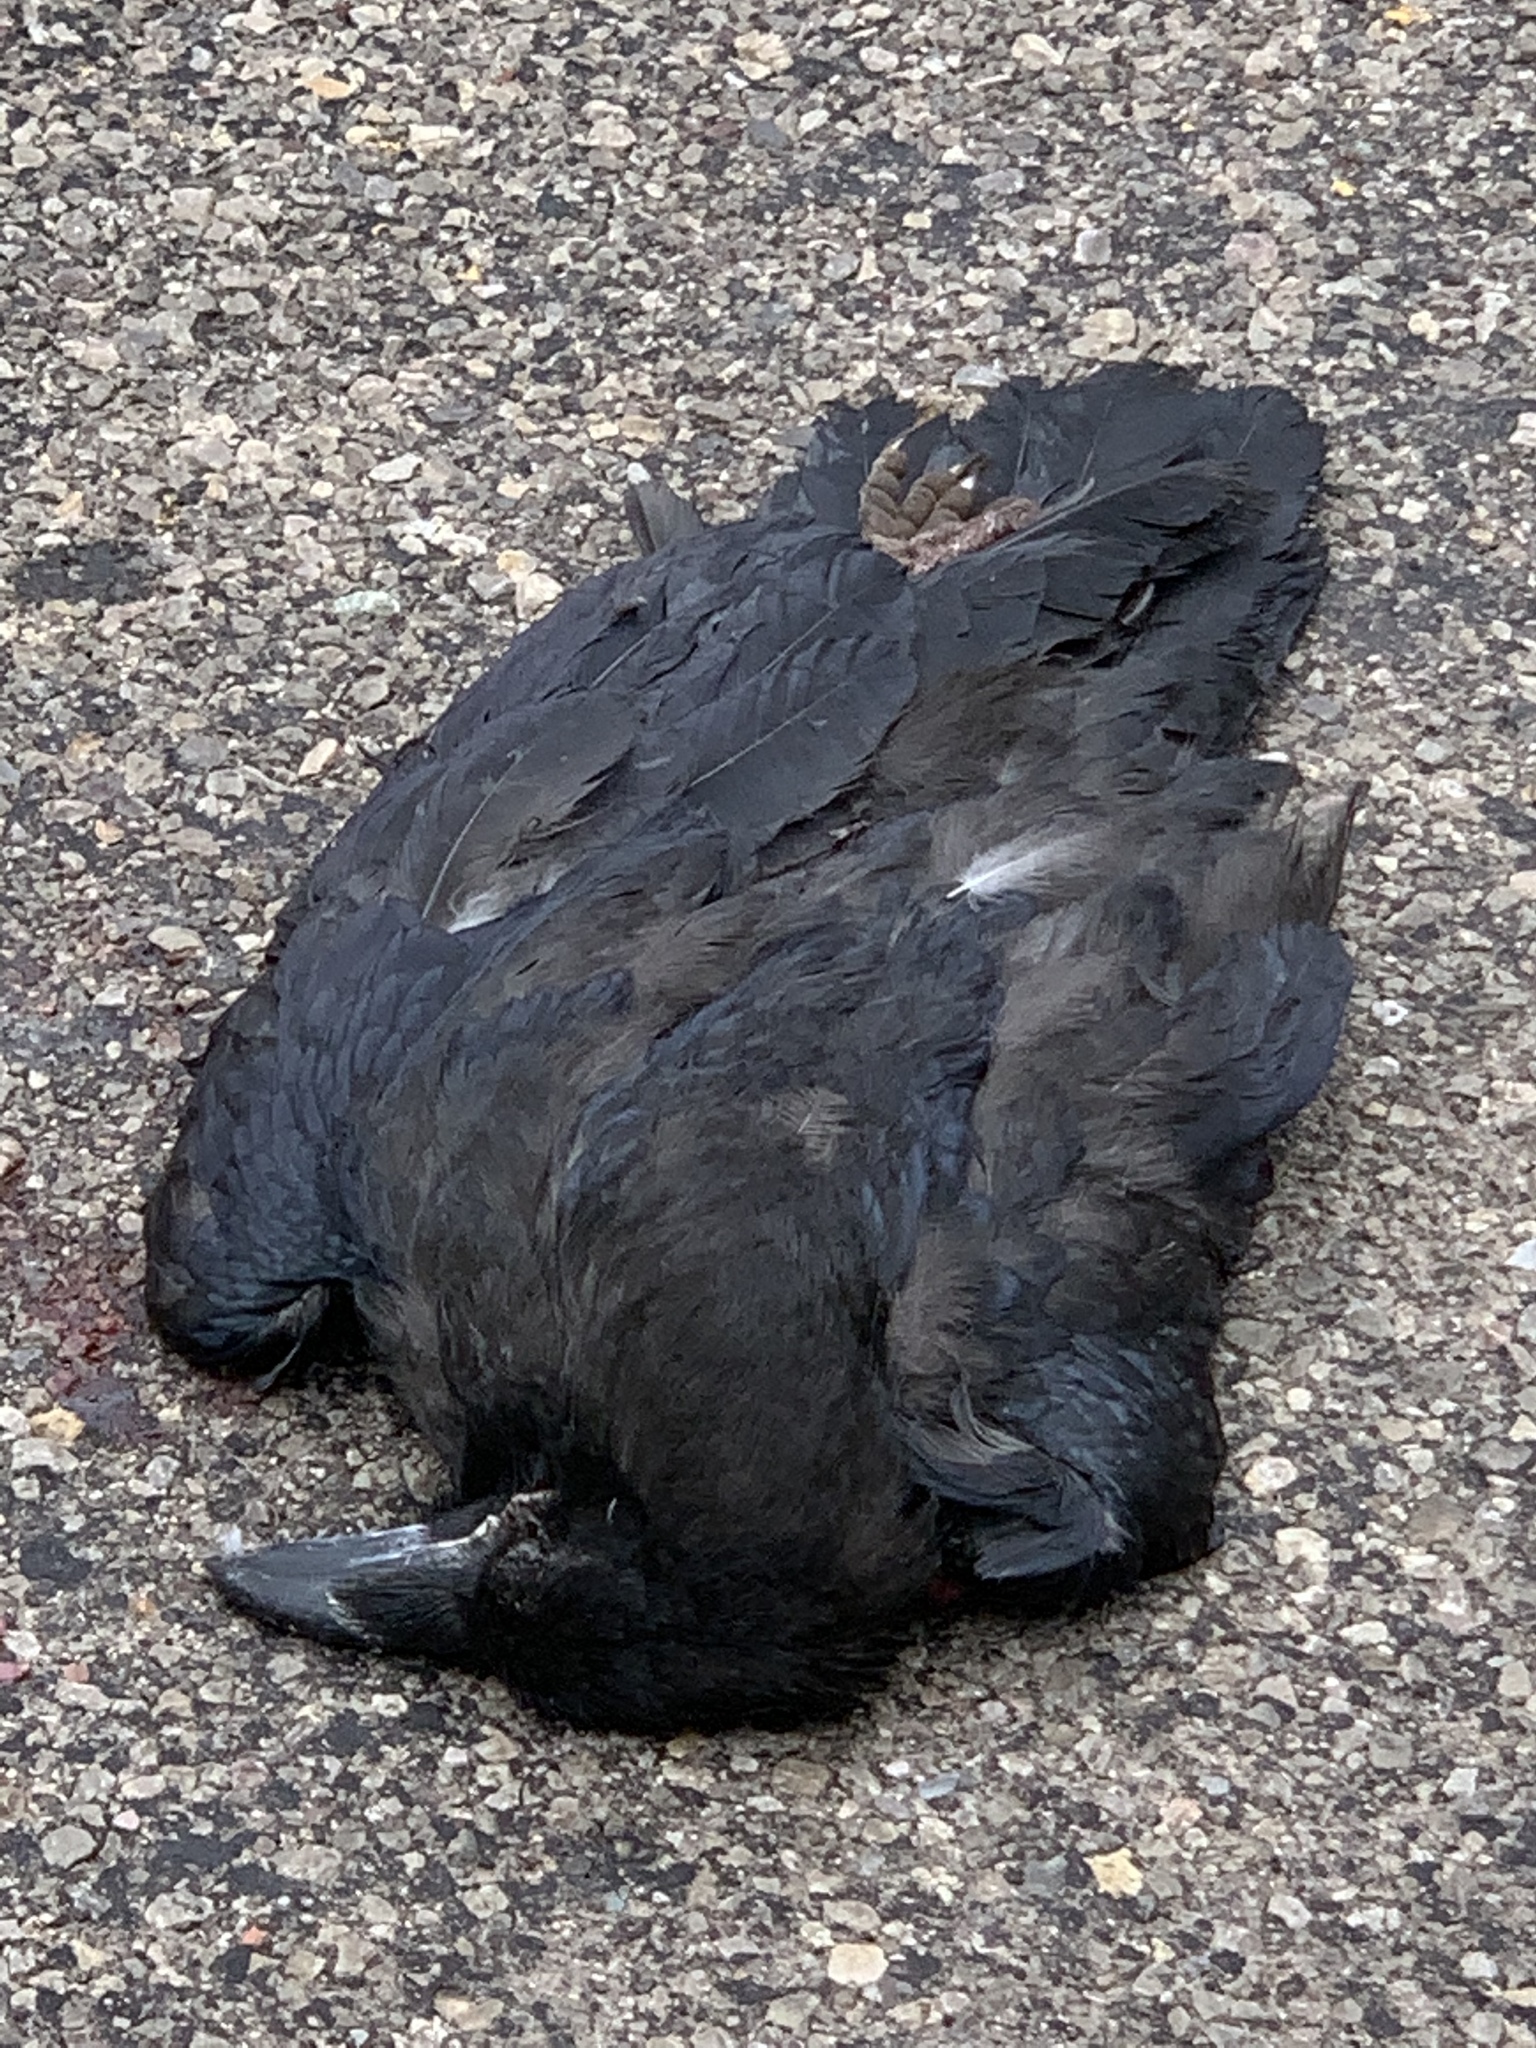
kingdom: Animalia
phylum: Chordata
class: Aves
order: Passeriformes
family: Corvidae
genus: Corvus
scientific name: Corvus brachyrhynchos
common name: American crow
